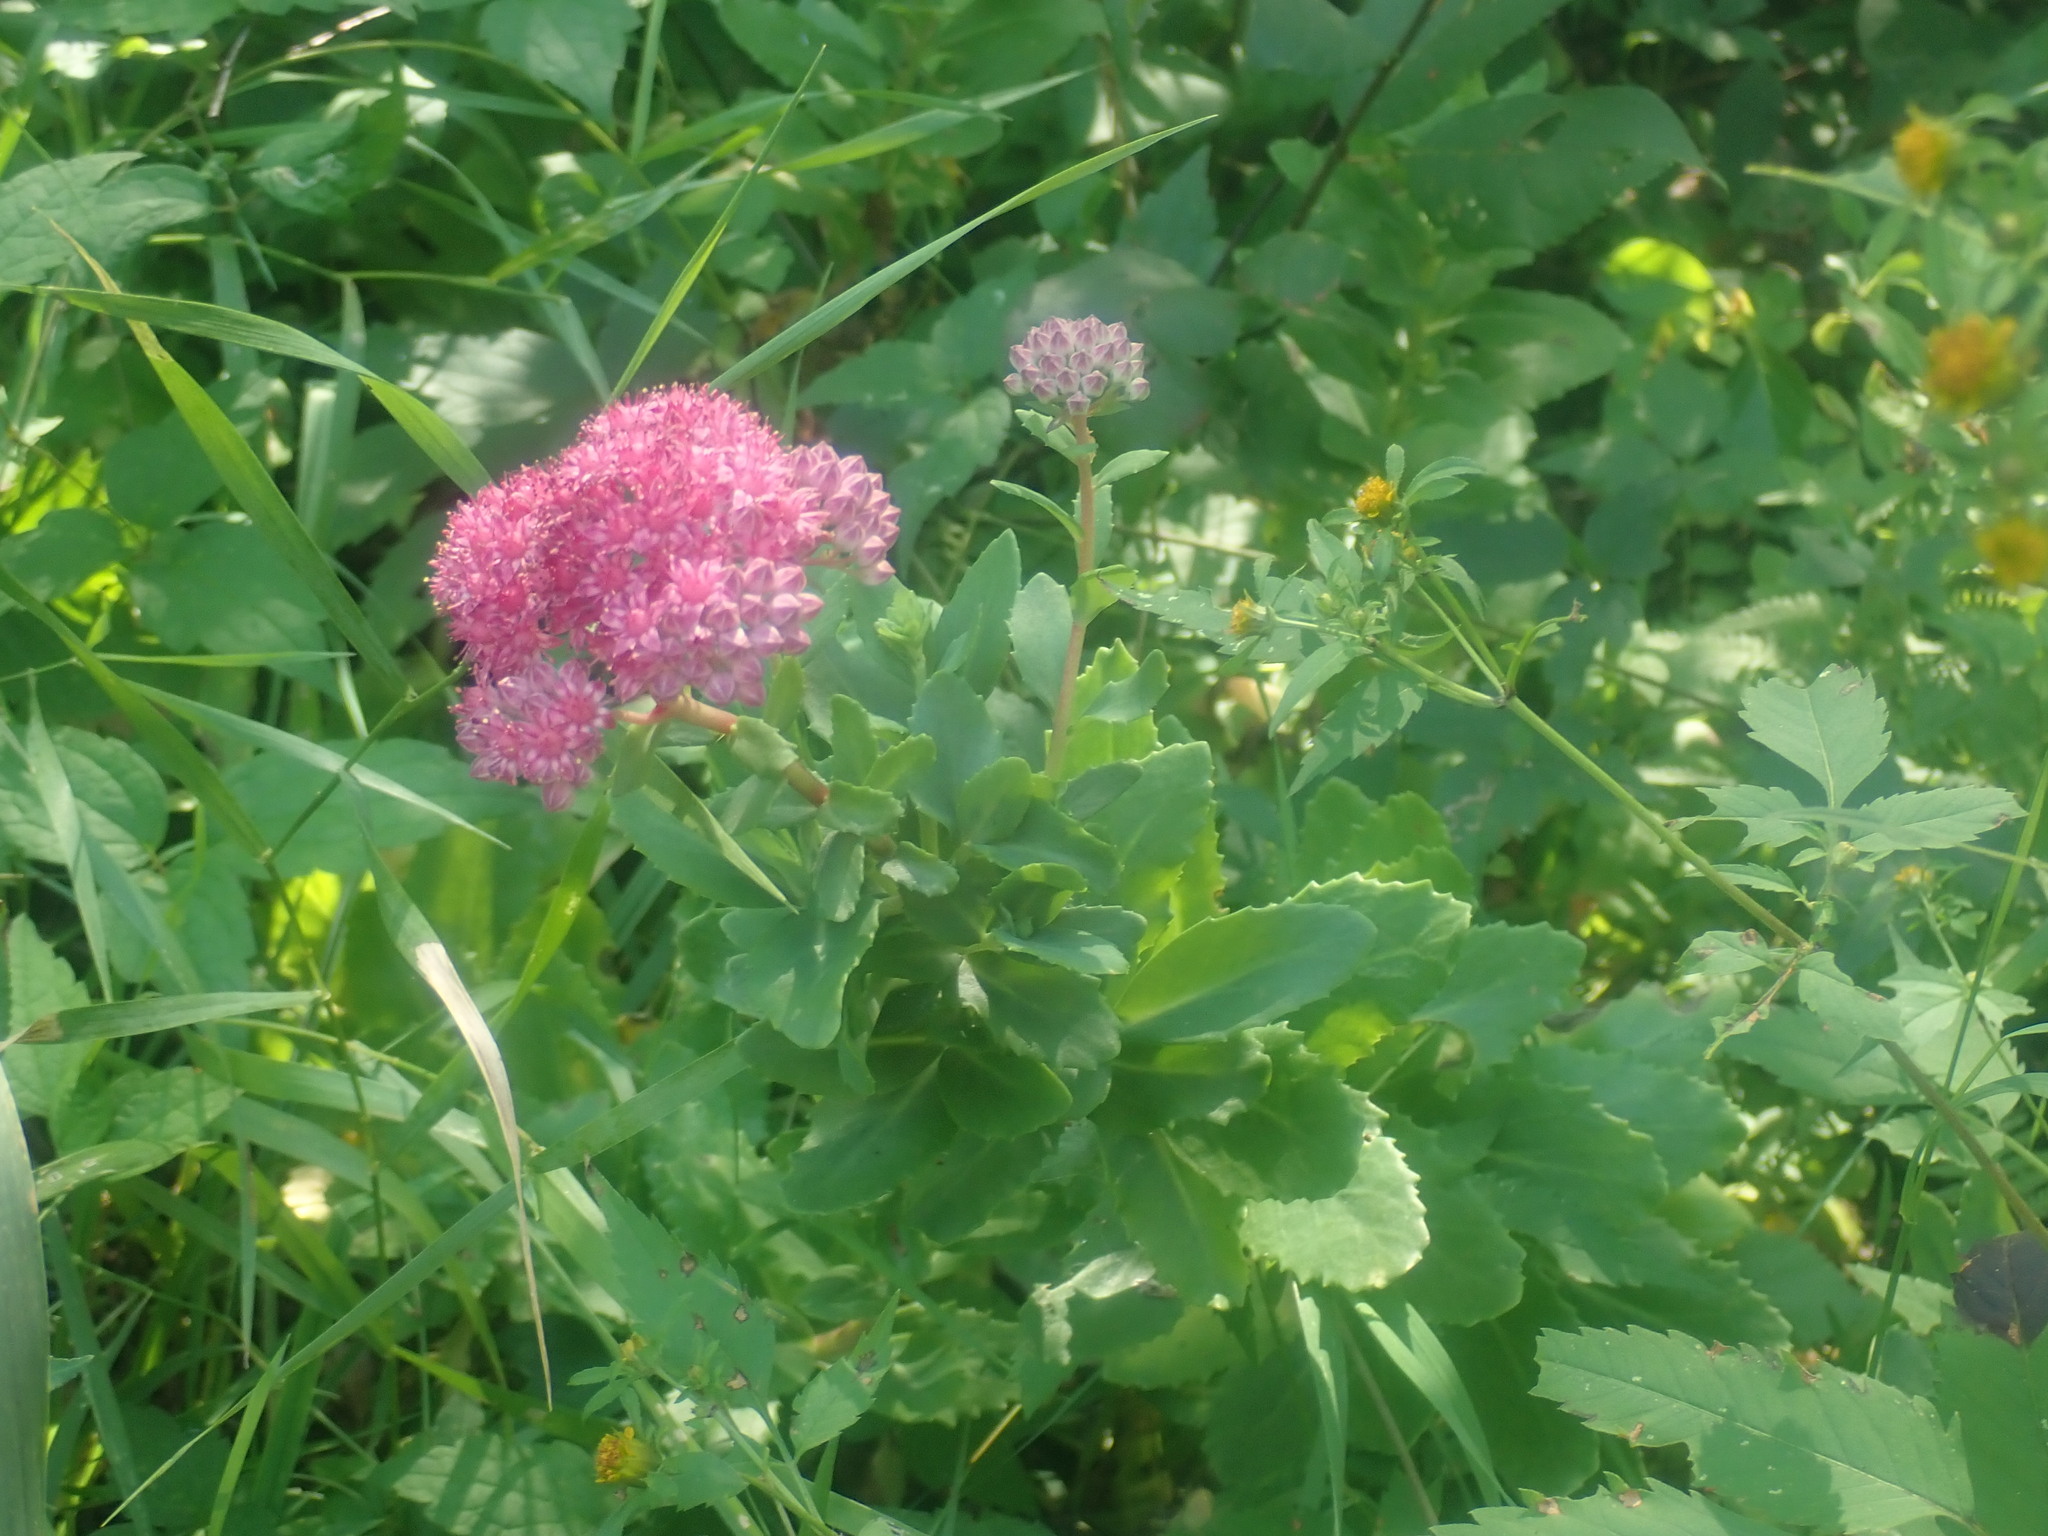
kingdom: Plantae
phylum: Tracheophyta
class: Magnoliopsida
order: Saxifragales
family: Crassulaceae
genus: Hylotelephium
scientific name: Hylotelephium telephium
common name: Live-forever
